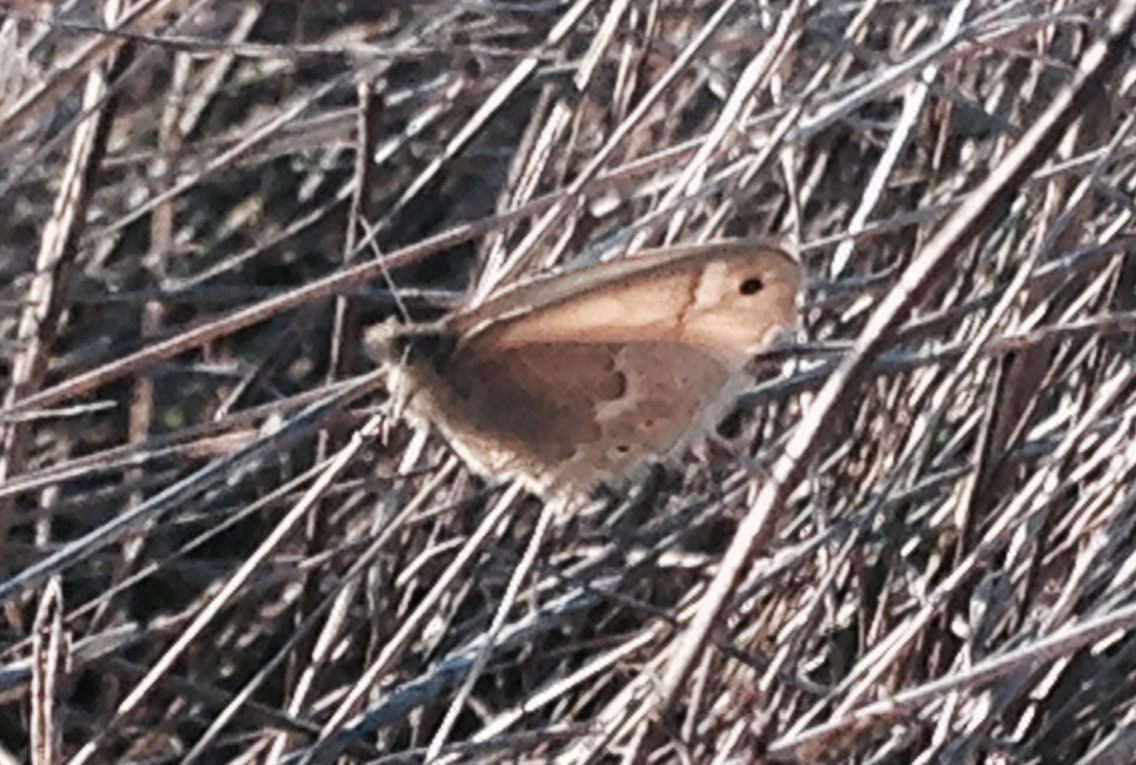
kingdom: Animalia
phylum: Arthropoda
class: Insecta
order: Lepidoptera
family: Nymphalidae
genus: Coenonympha
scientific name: Coenonympha california
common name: Common ringlet
